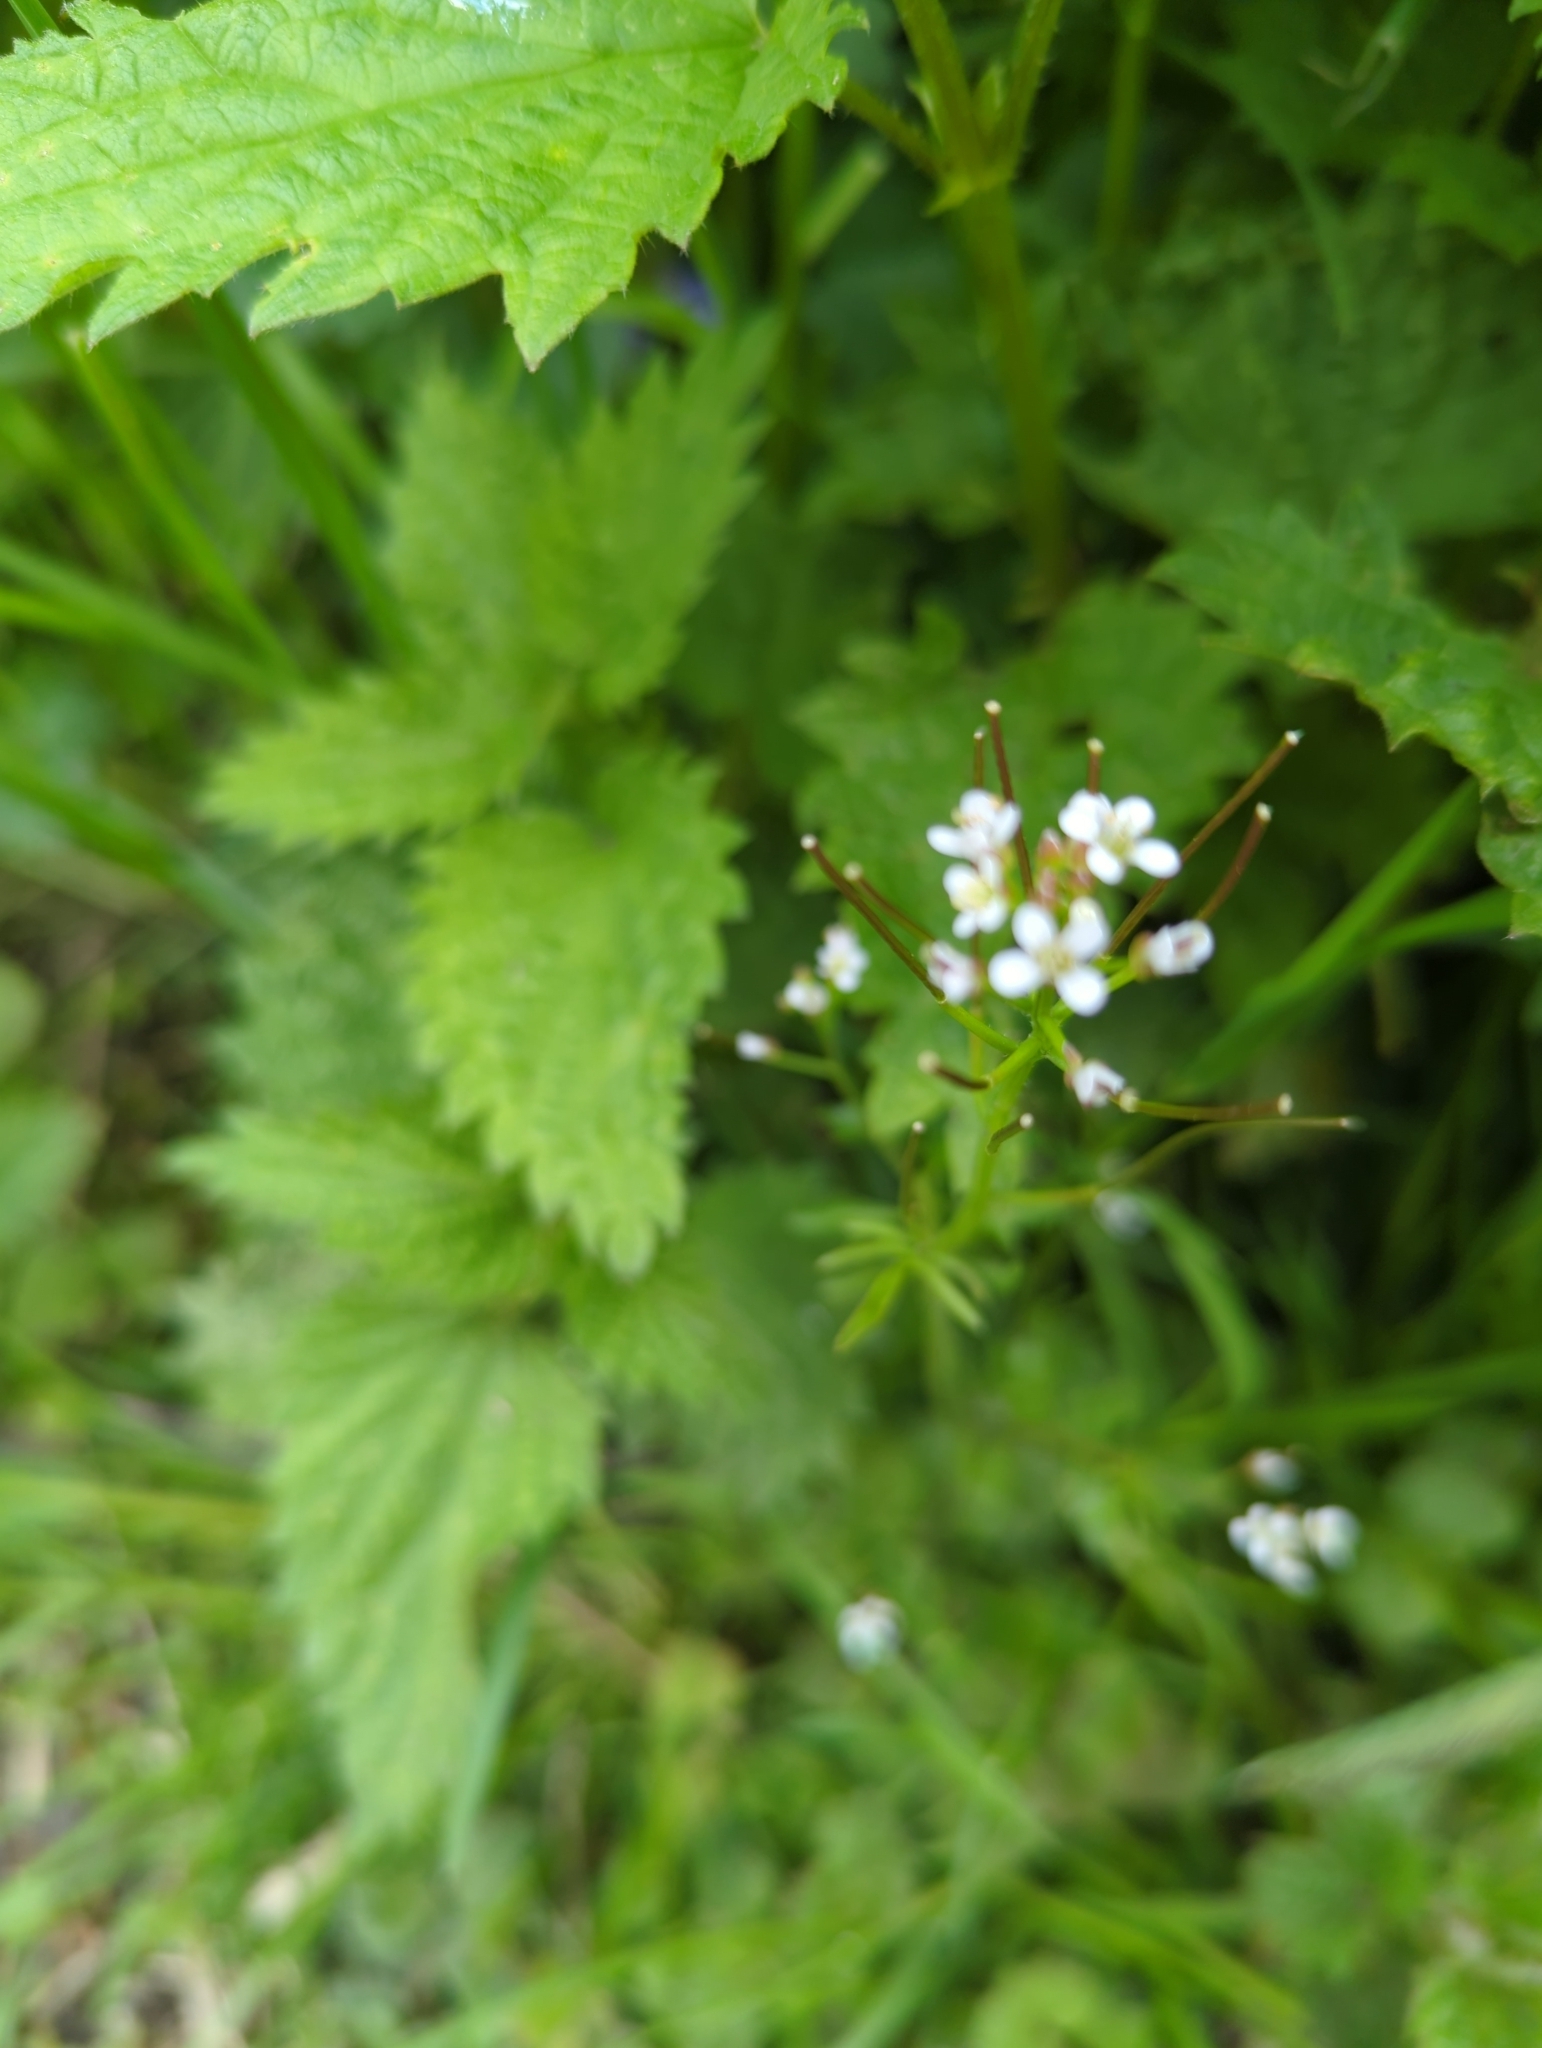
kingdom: Plantae
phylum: Tracheophyta
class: Magnoliopsida
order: Brassicales
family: Brassicaceae
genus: Cardamine
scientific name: Cardamine flexuosa
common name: Woodland bittercress
